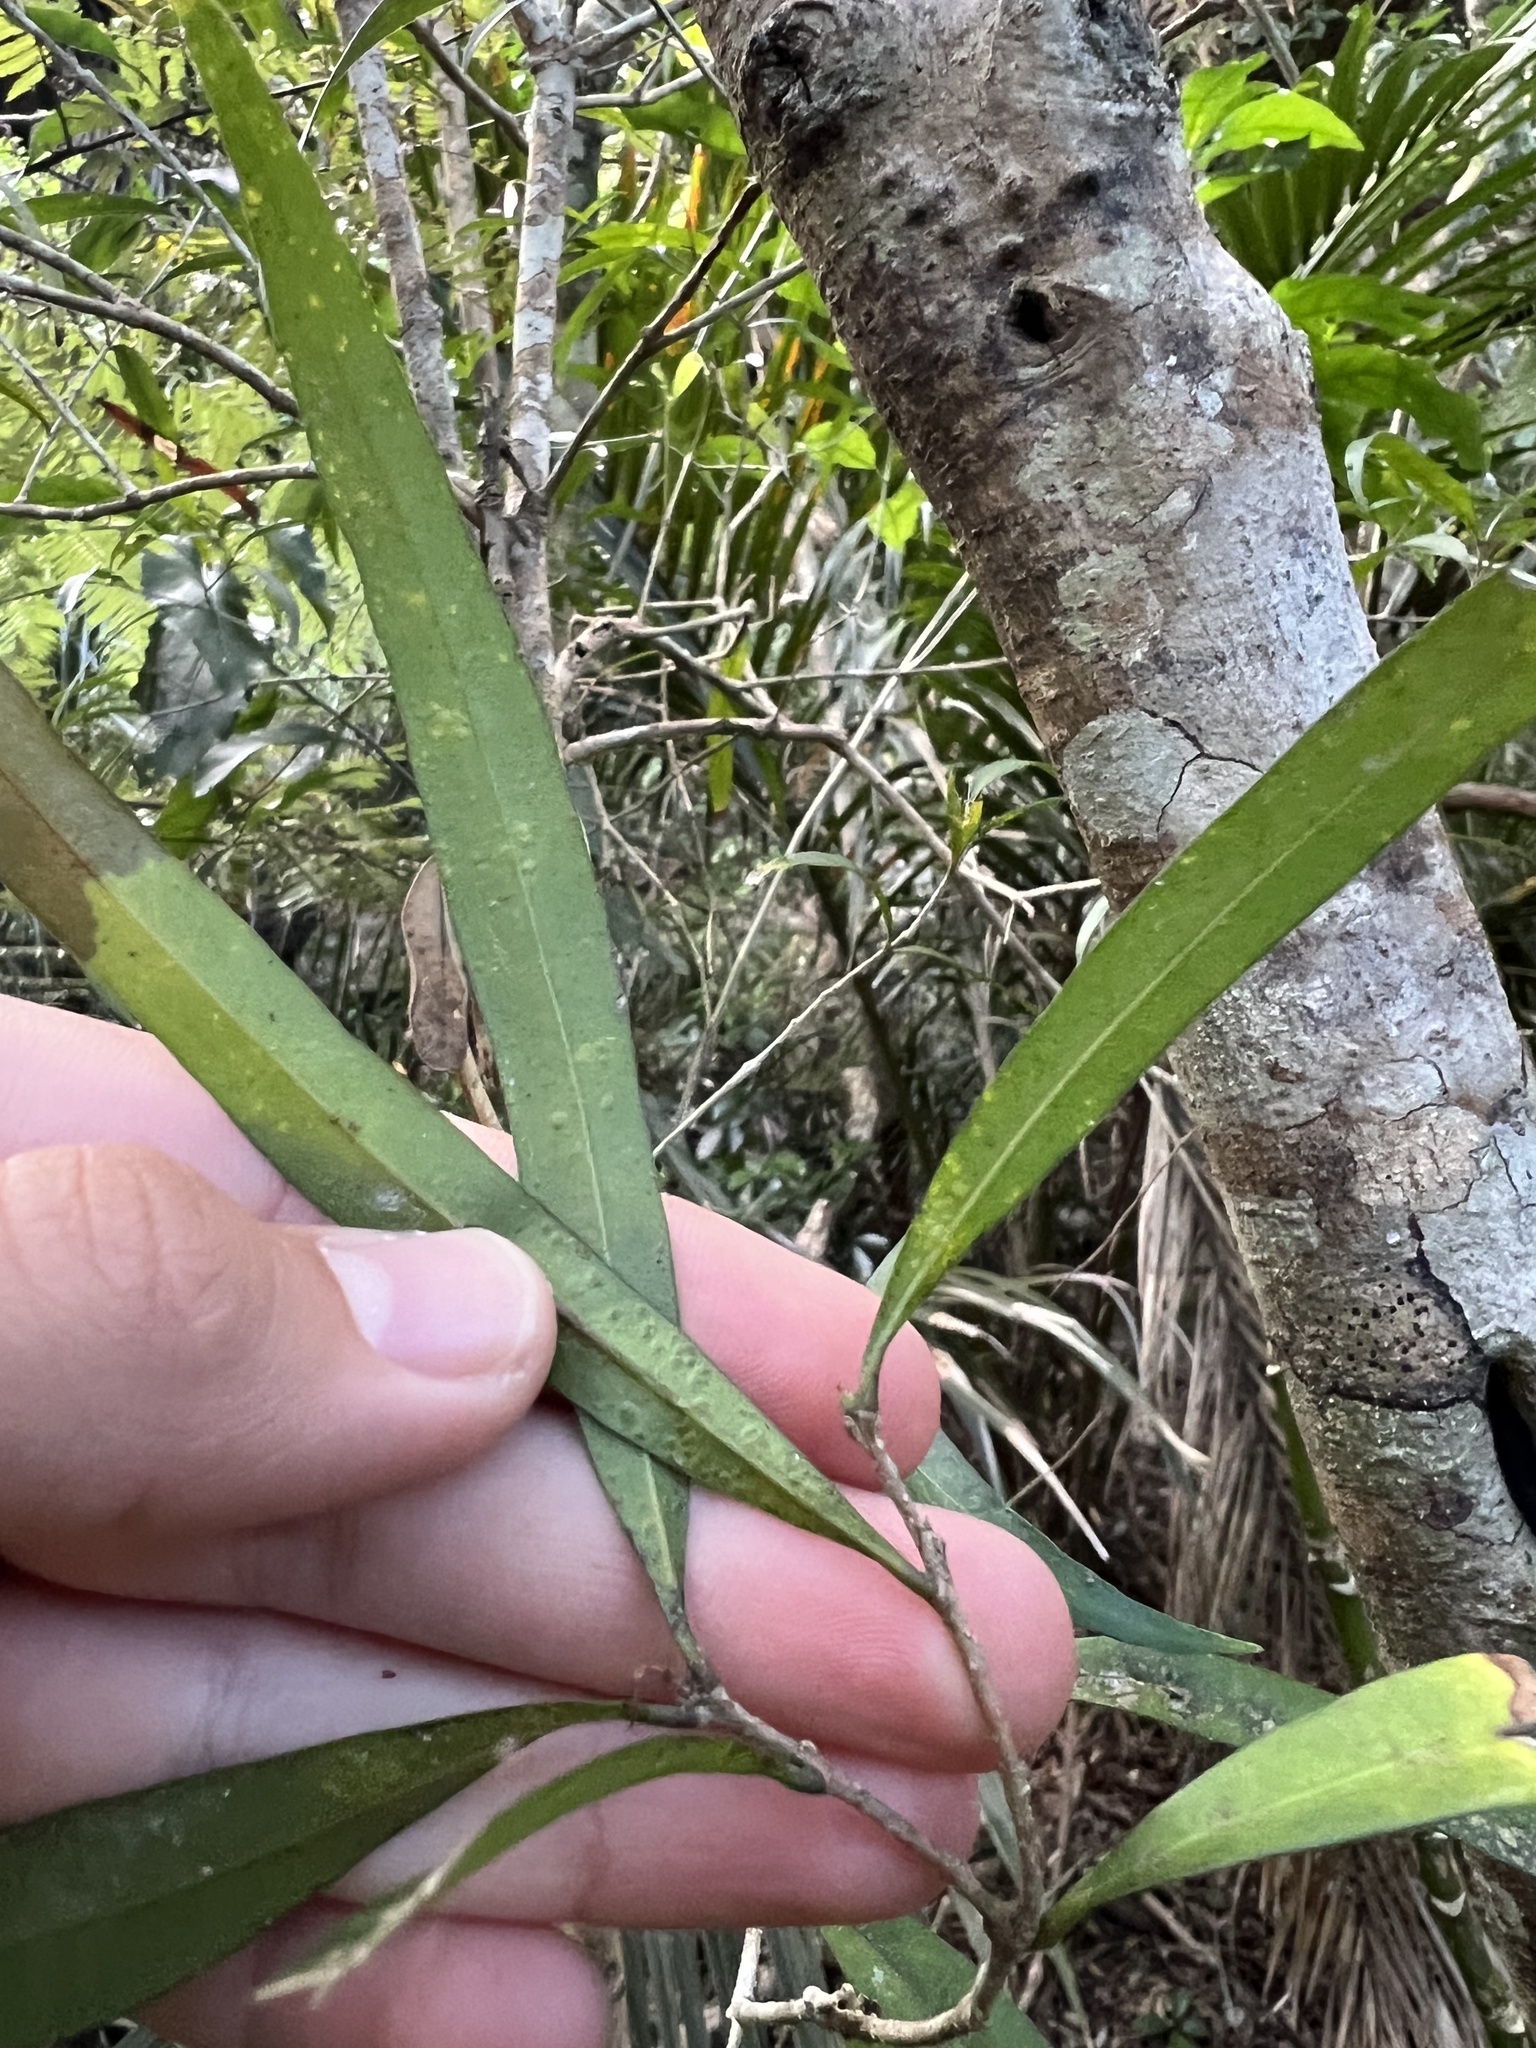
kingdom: Plantae
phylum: Tracheophyta
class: Magnoliopsida
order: Lamiales
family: Oleaceae
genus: Nestegis
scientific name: Nestegis lanceolata
